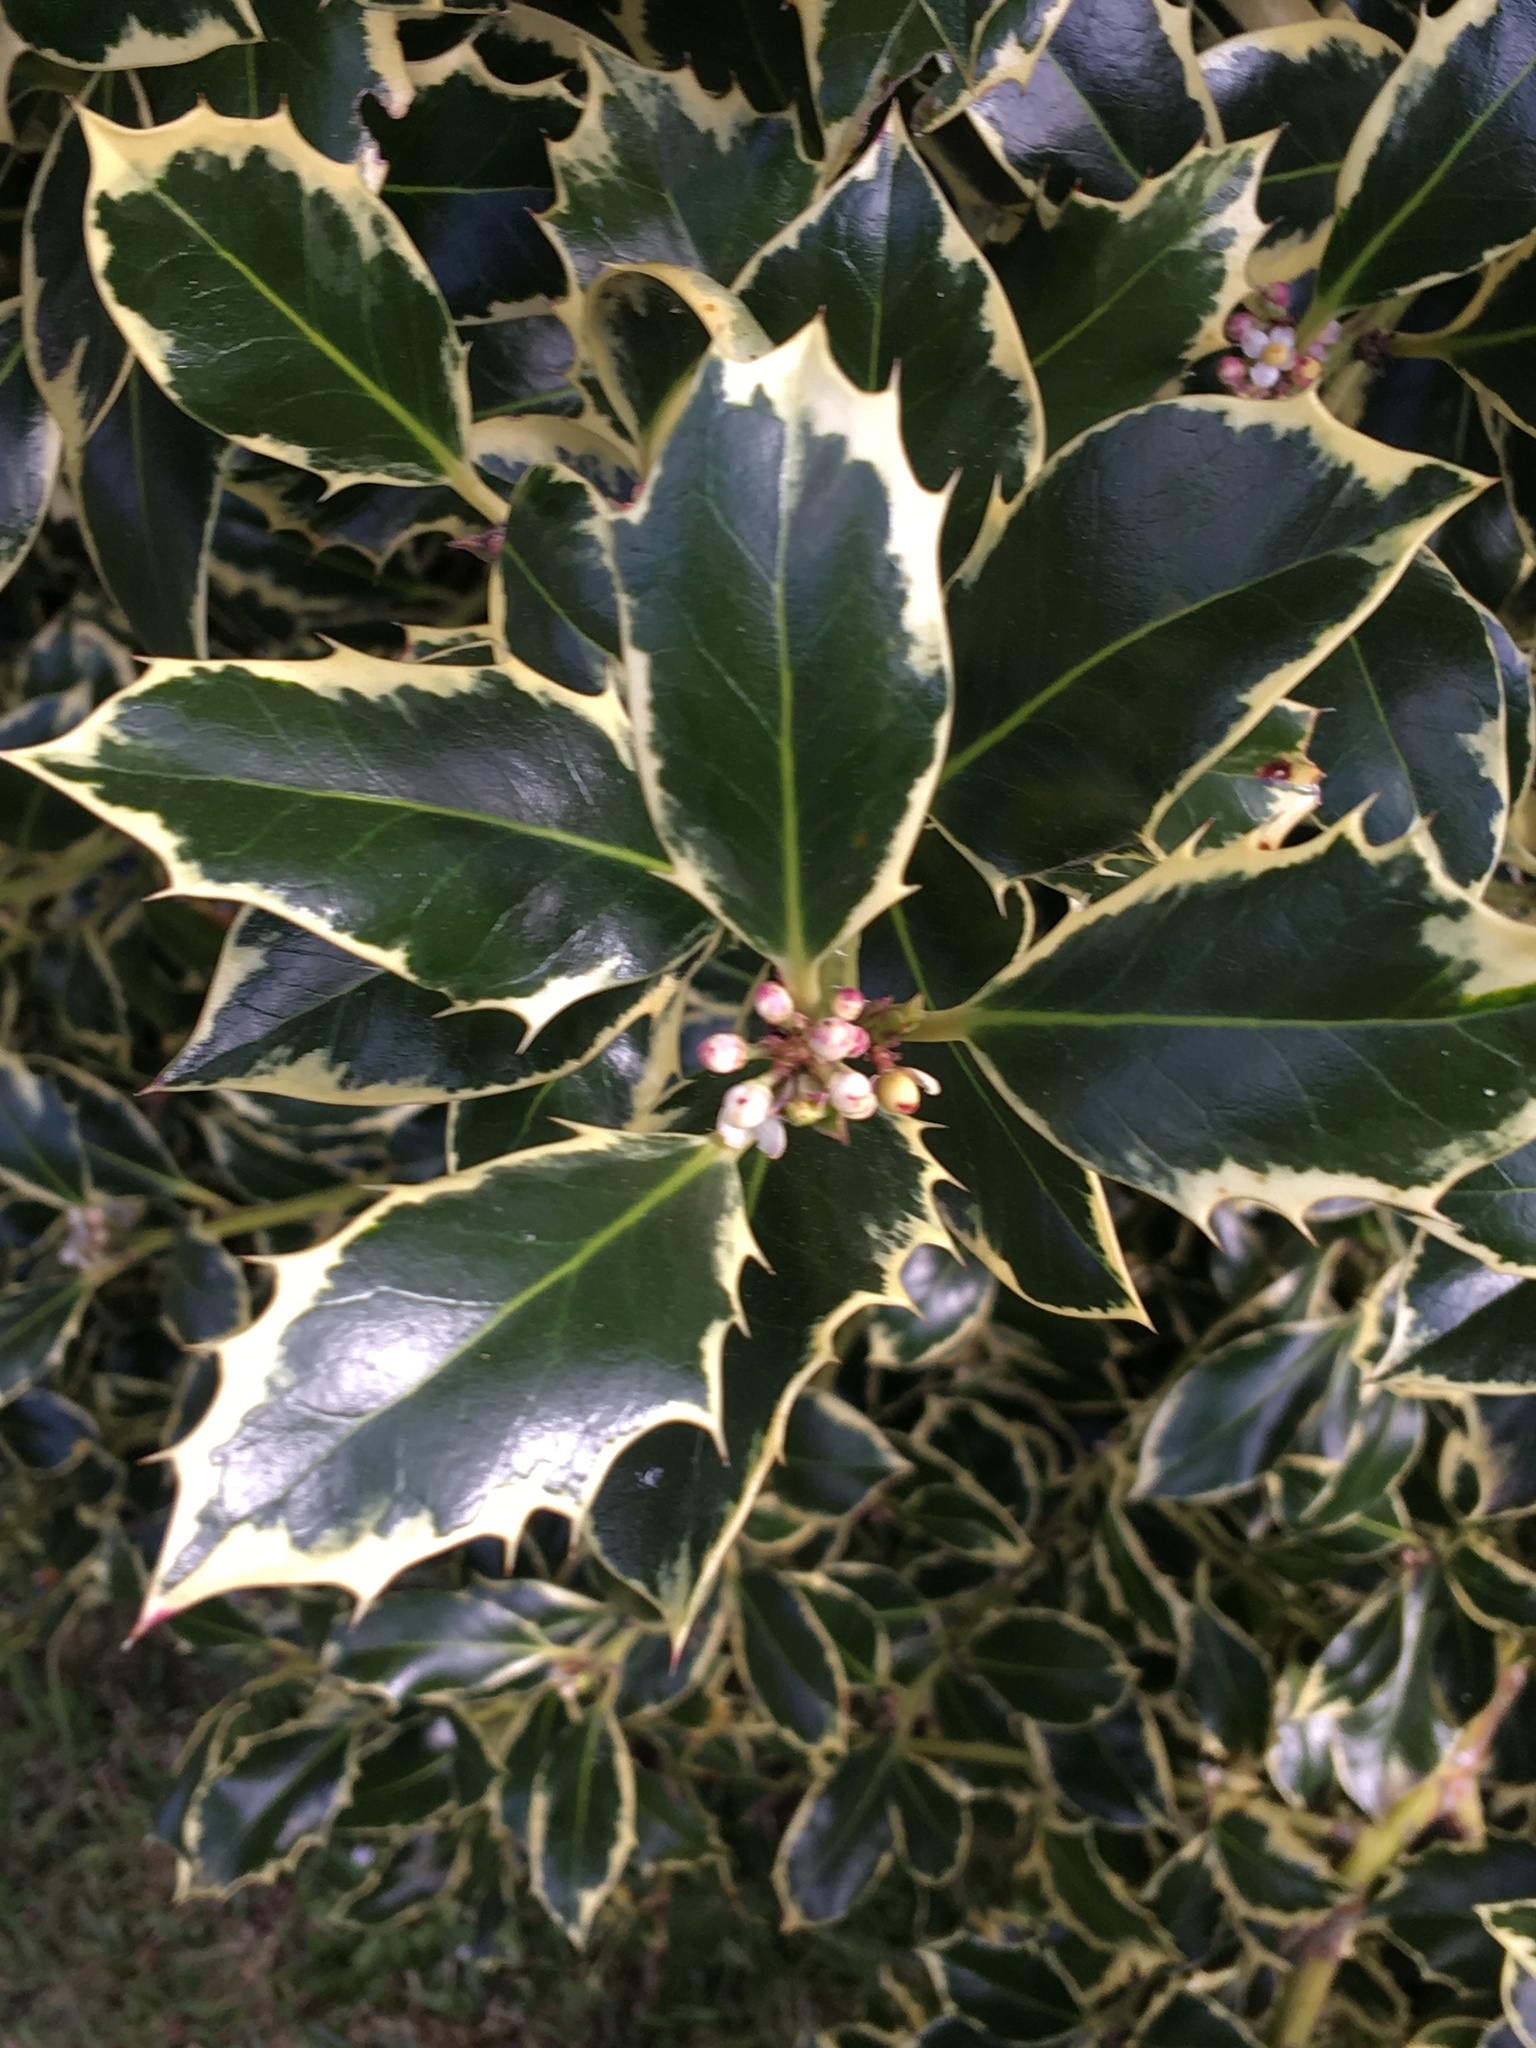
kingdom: Plantae
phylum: Tracheophyta
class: Magnoliopsida
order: Aquifoliales
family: Aquifoliaceae
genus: Ilex
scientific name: Ilex aquifolium
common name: English holly
